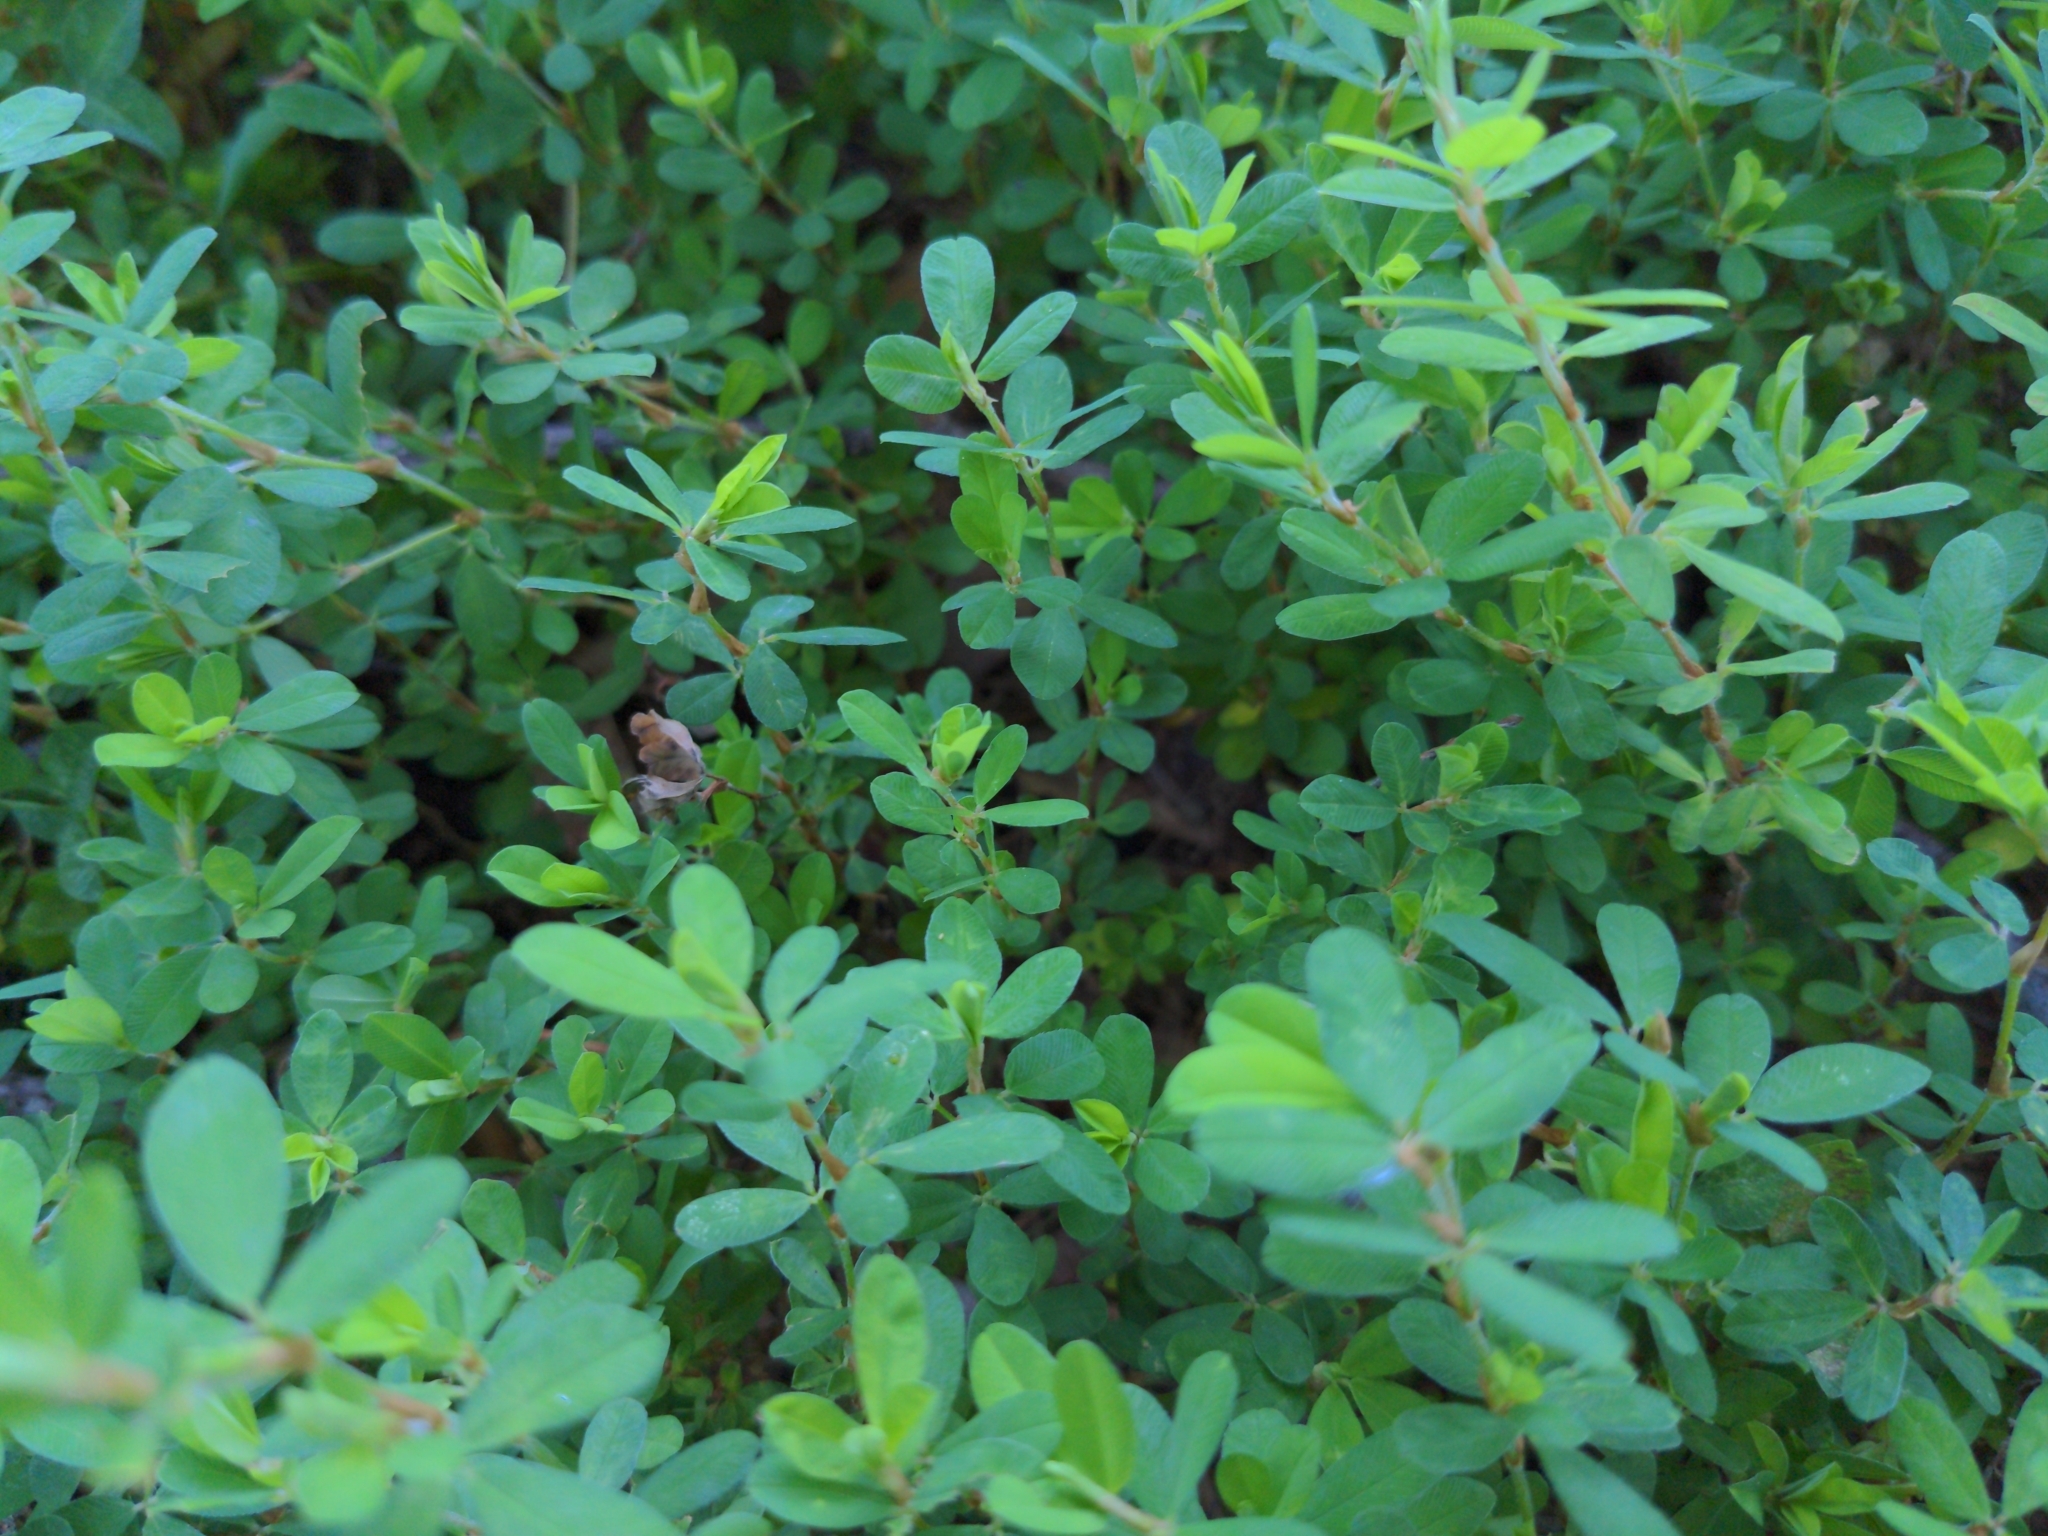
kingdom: Plantae
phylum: Tracheophyta
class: Magnoliopsida
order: Fabales
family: Fabaceae
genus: Kummerowia
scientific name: Kummerowia striata
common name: Japanese clover
